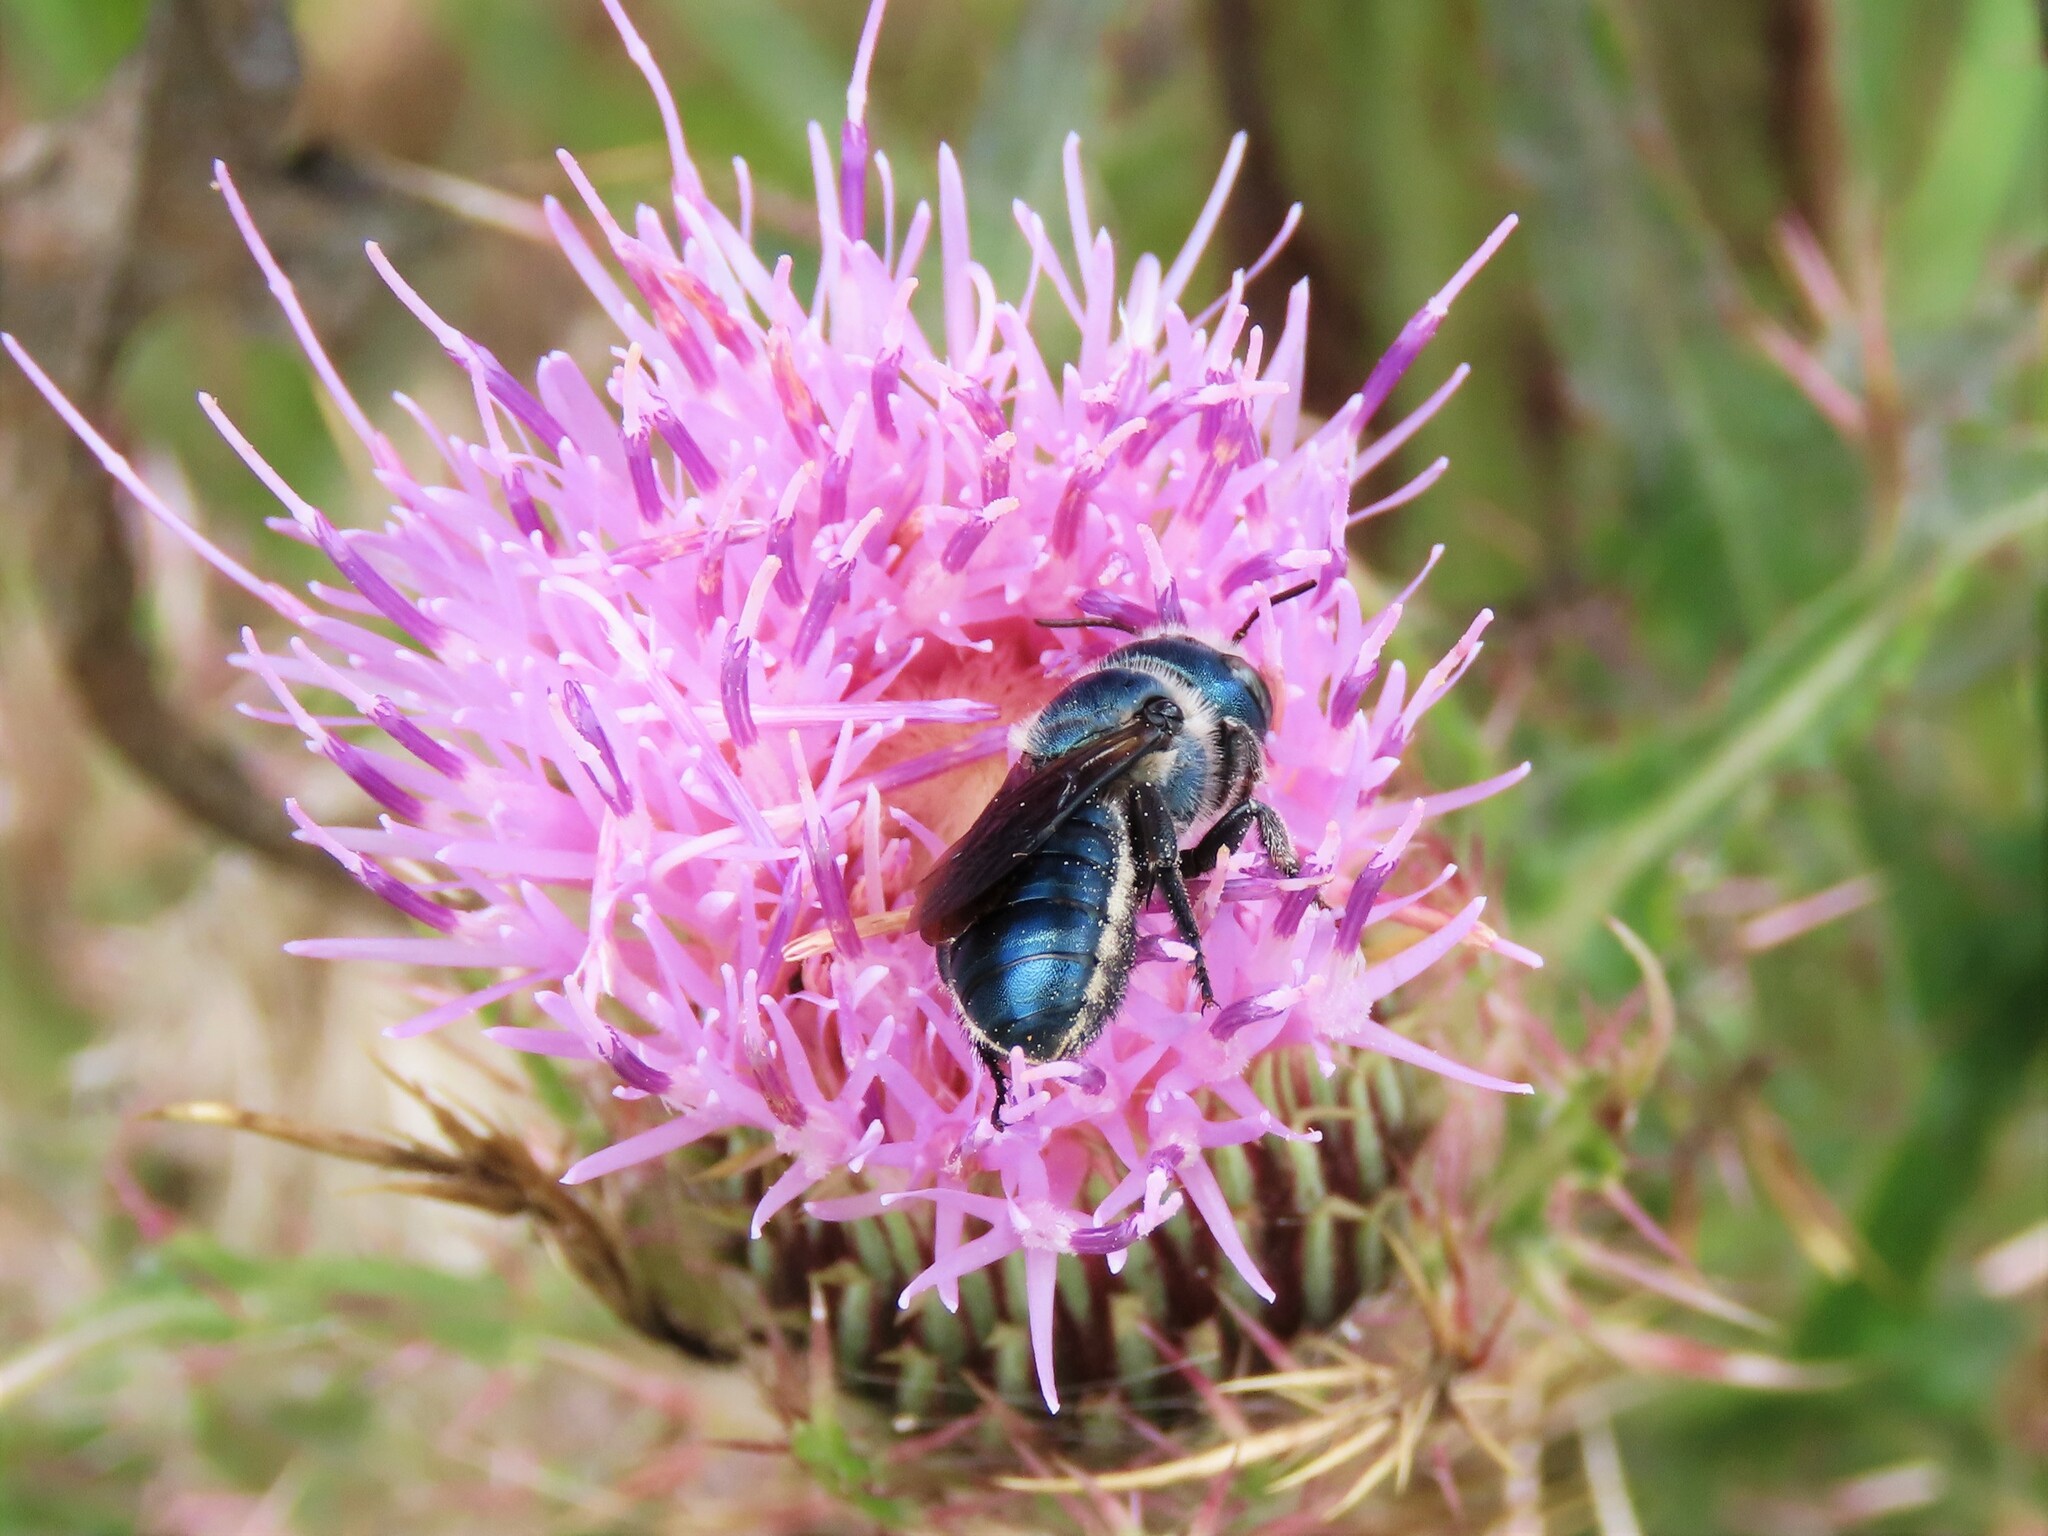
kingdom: Animalia
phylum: Arthropoda
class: Insecta
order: Hymenoptera
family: Megachilidae
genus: Osmia
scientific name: Osmia chalybea
